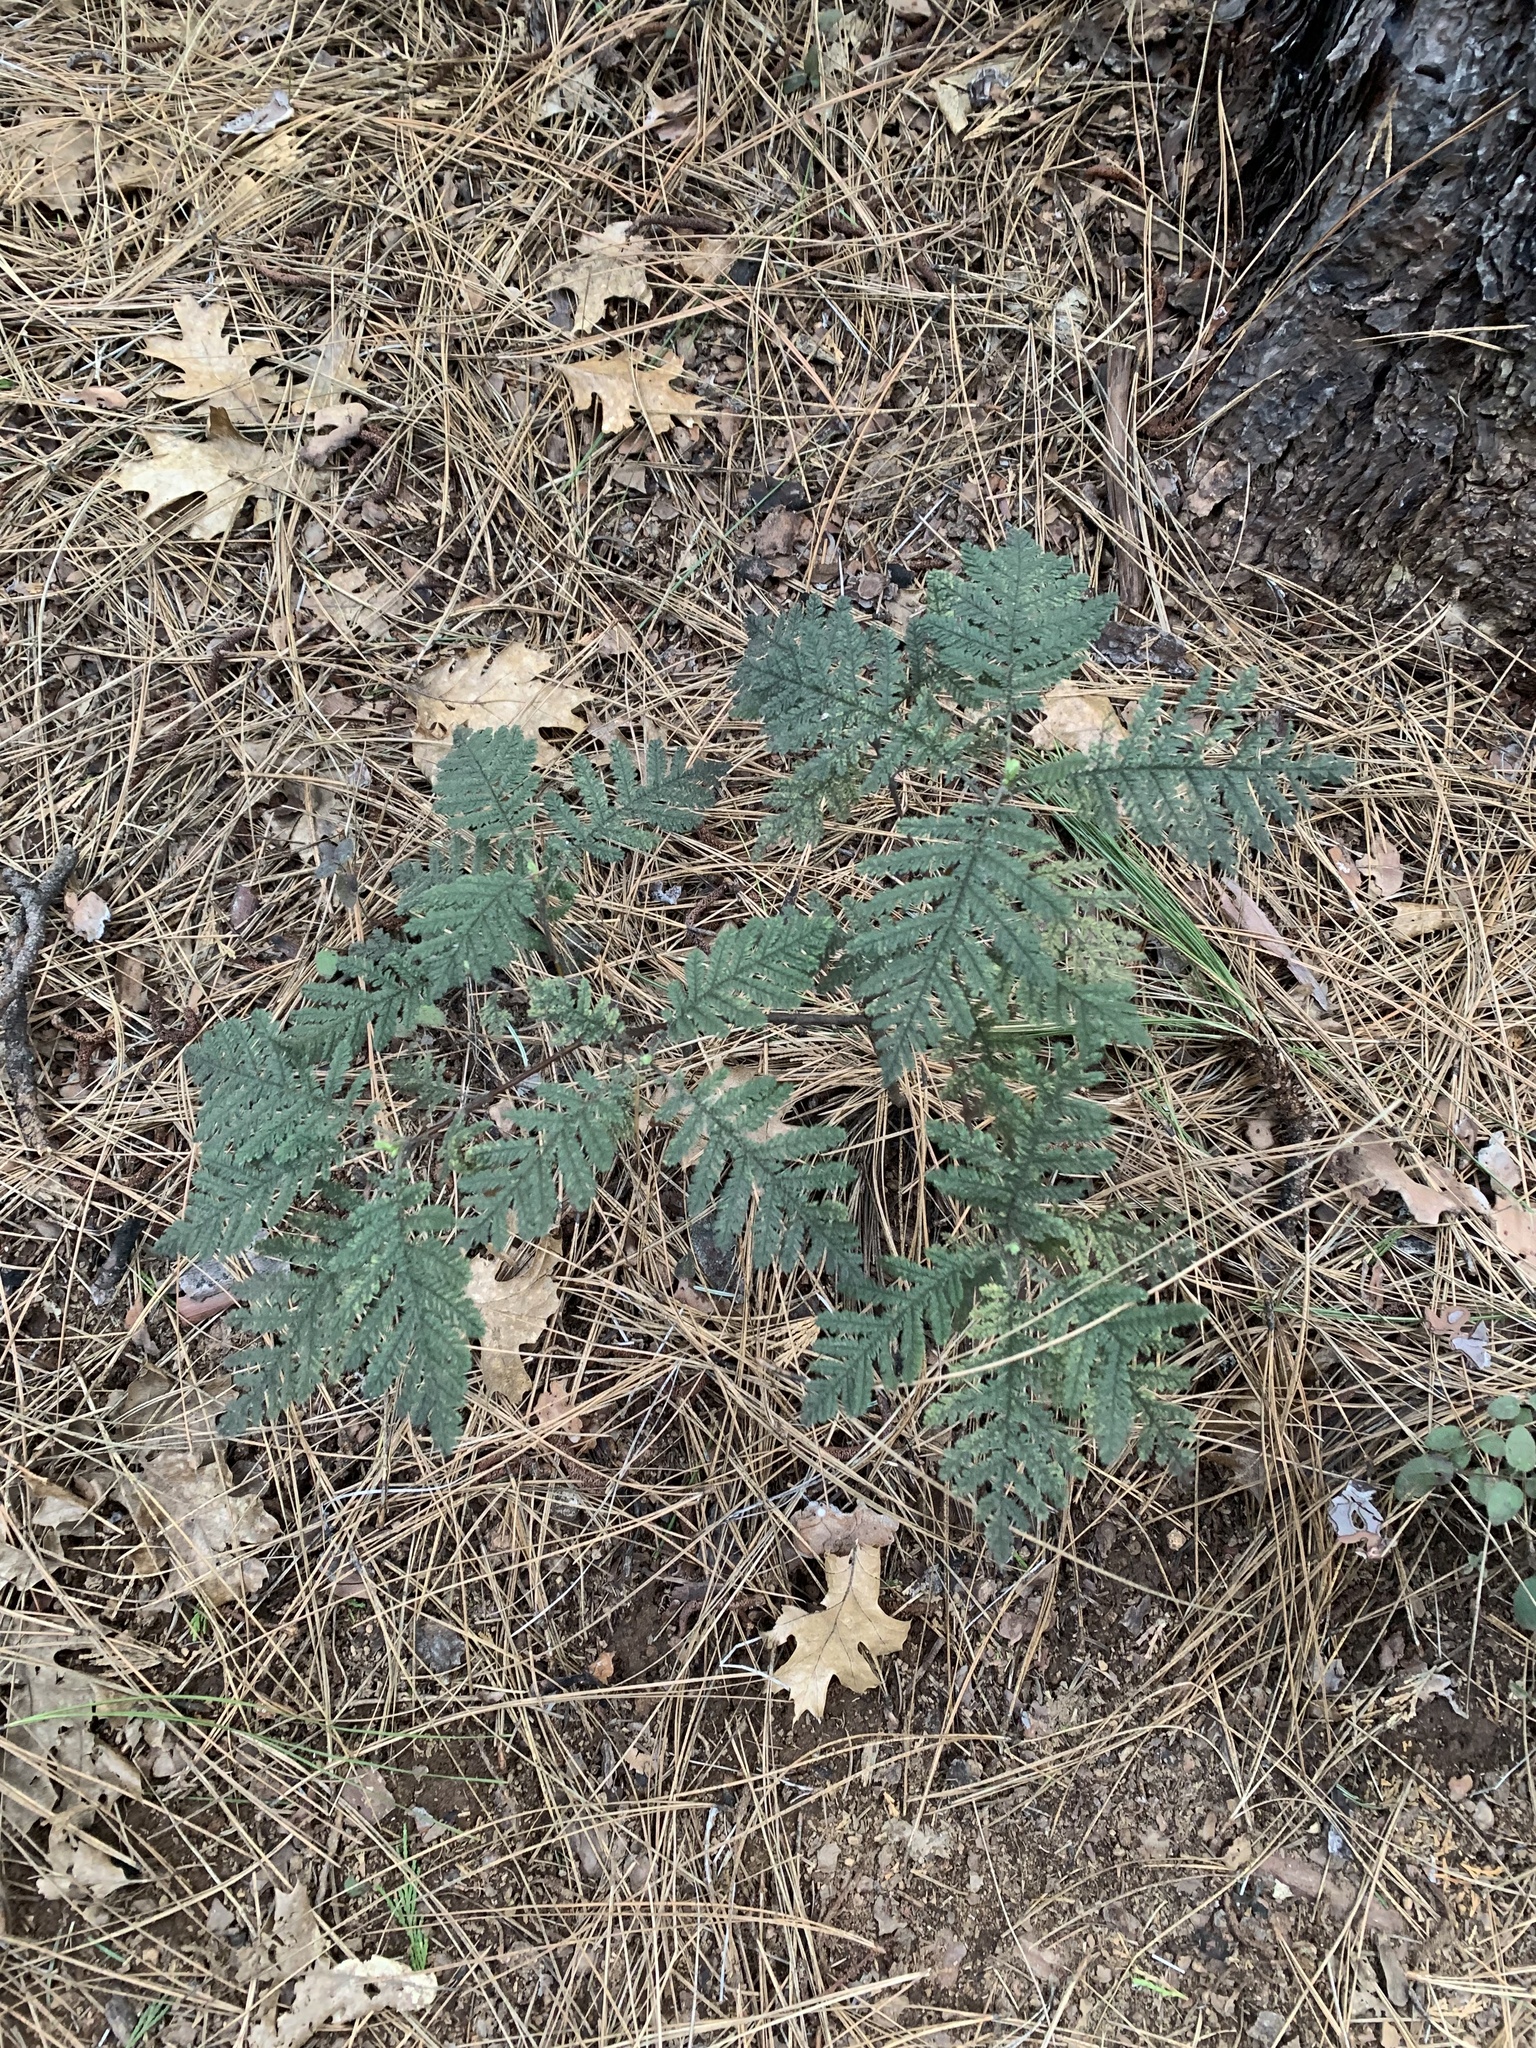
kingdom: Plantae
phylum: Tracheophyta
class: Magnoliopsida
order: Rosales
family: Rosaceae
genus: Chamaebatia
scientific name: Chamaebatia foliolosa
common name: Mountain misery
